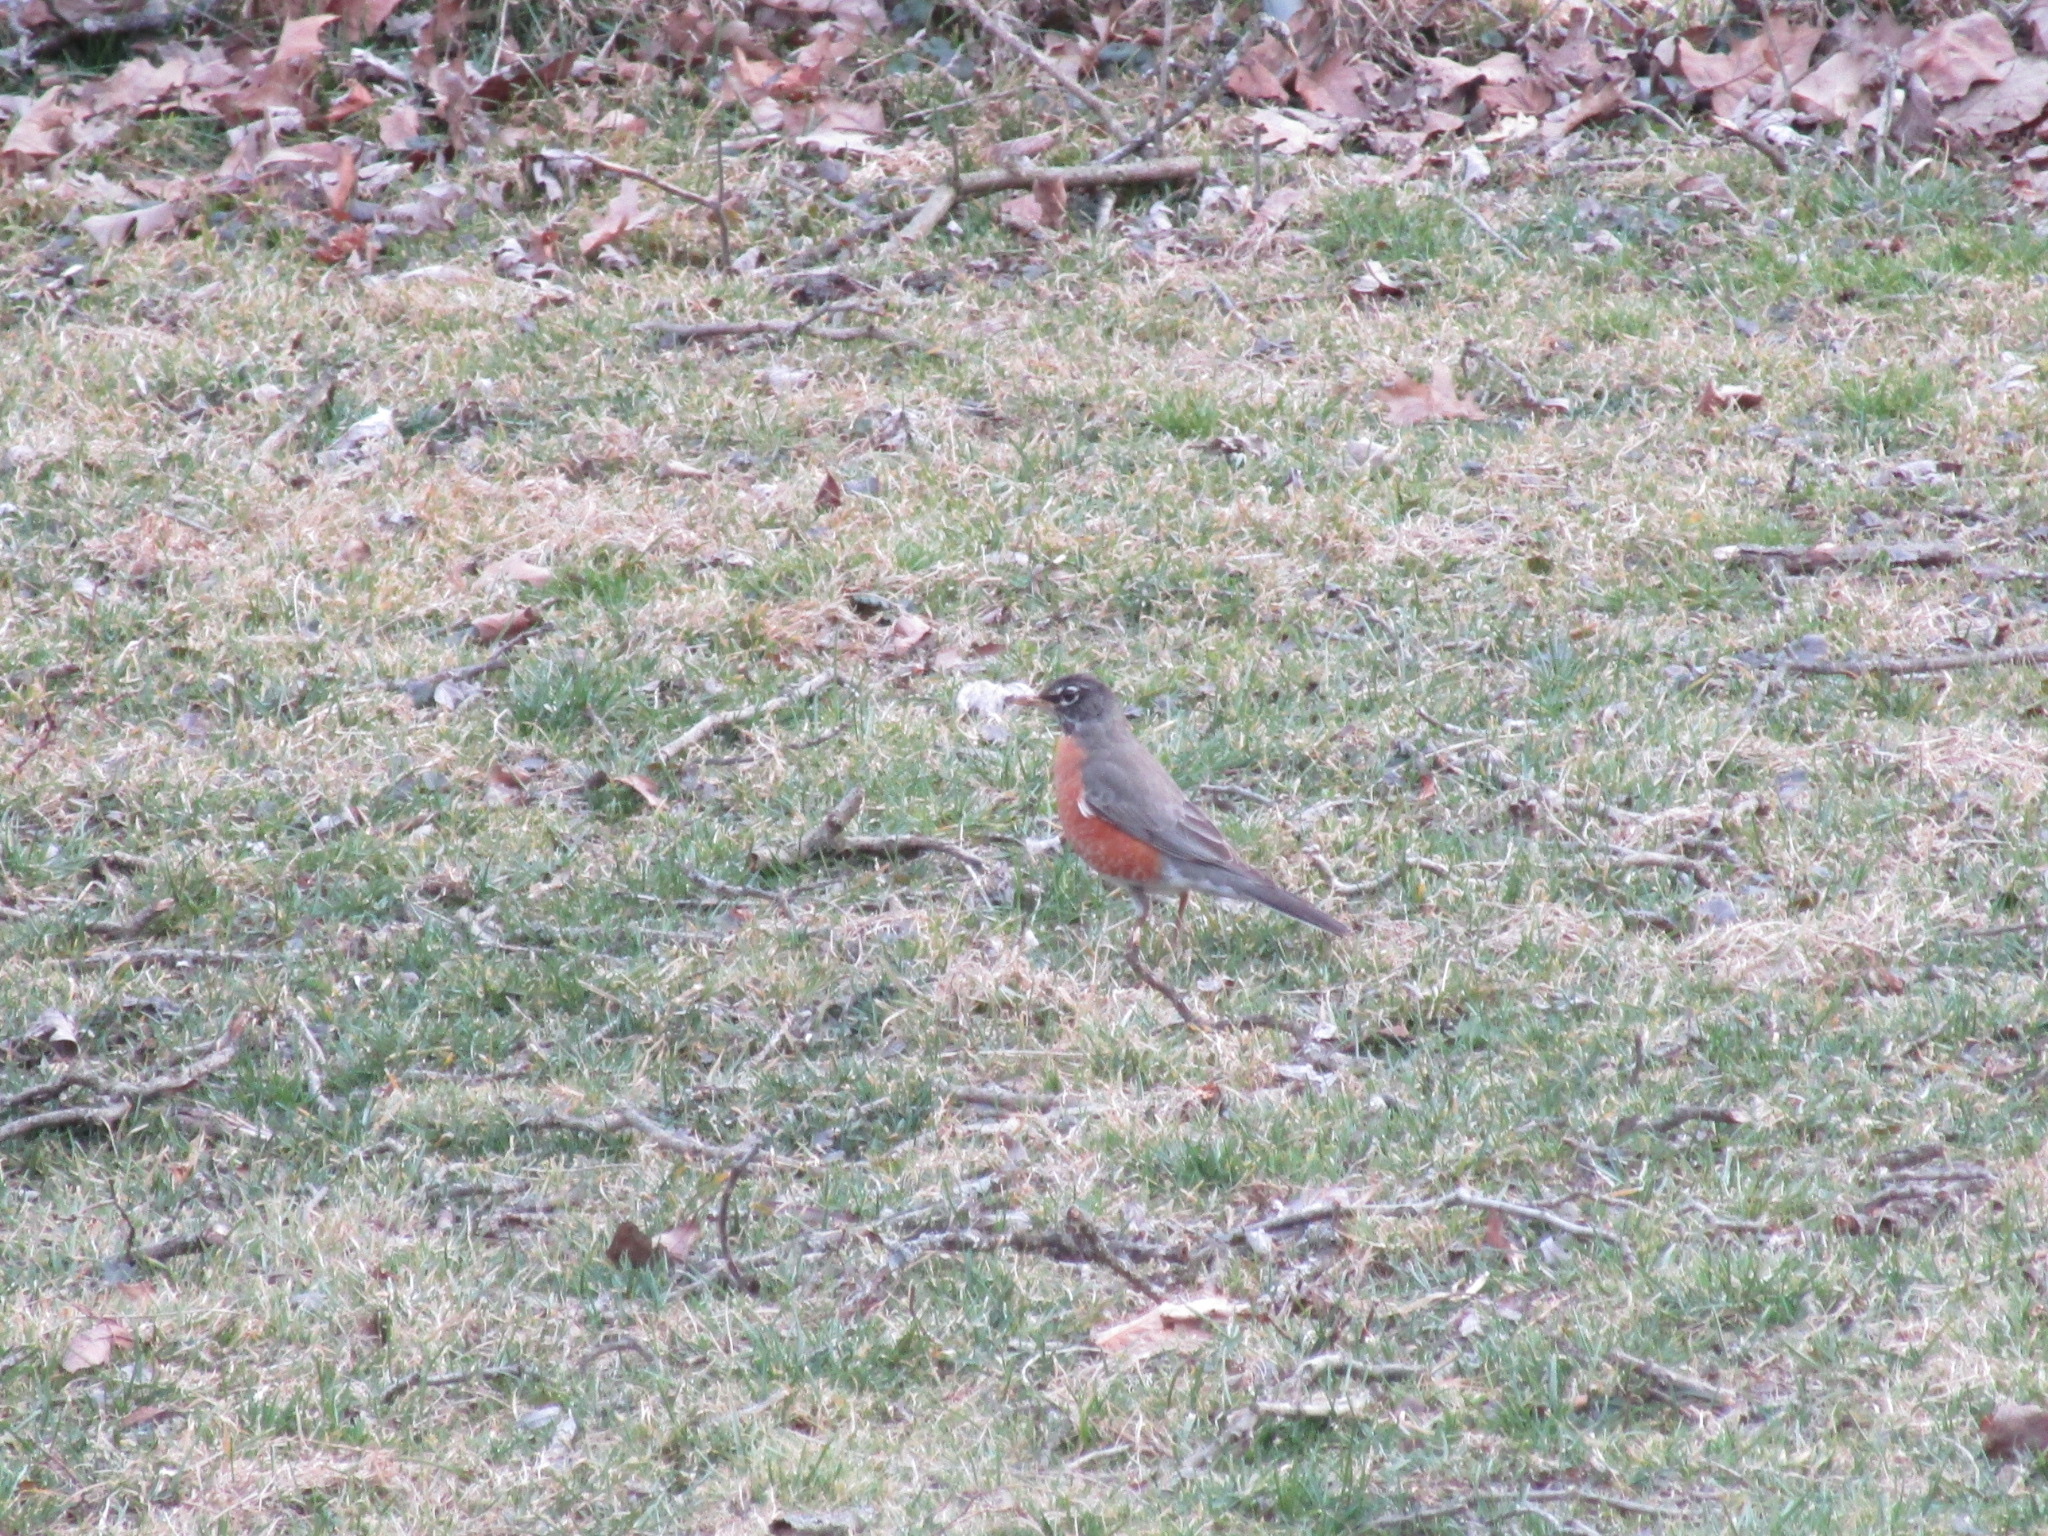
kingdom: Animalia
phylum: Chordata
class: Aves
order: Passeriformes
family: Turdidae
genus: Turdus
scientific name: Turdus migratorius
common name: American robin
